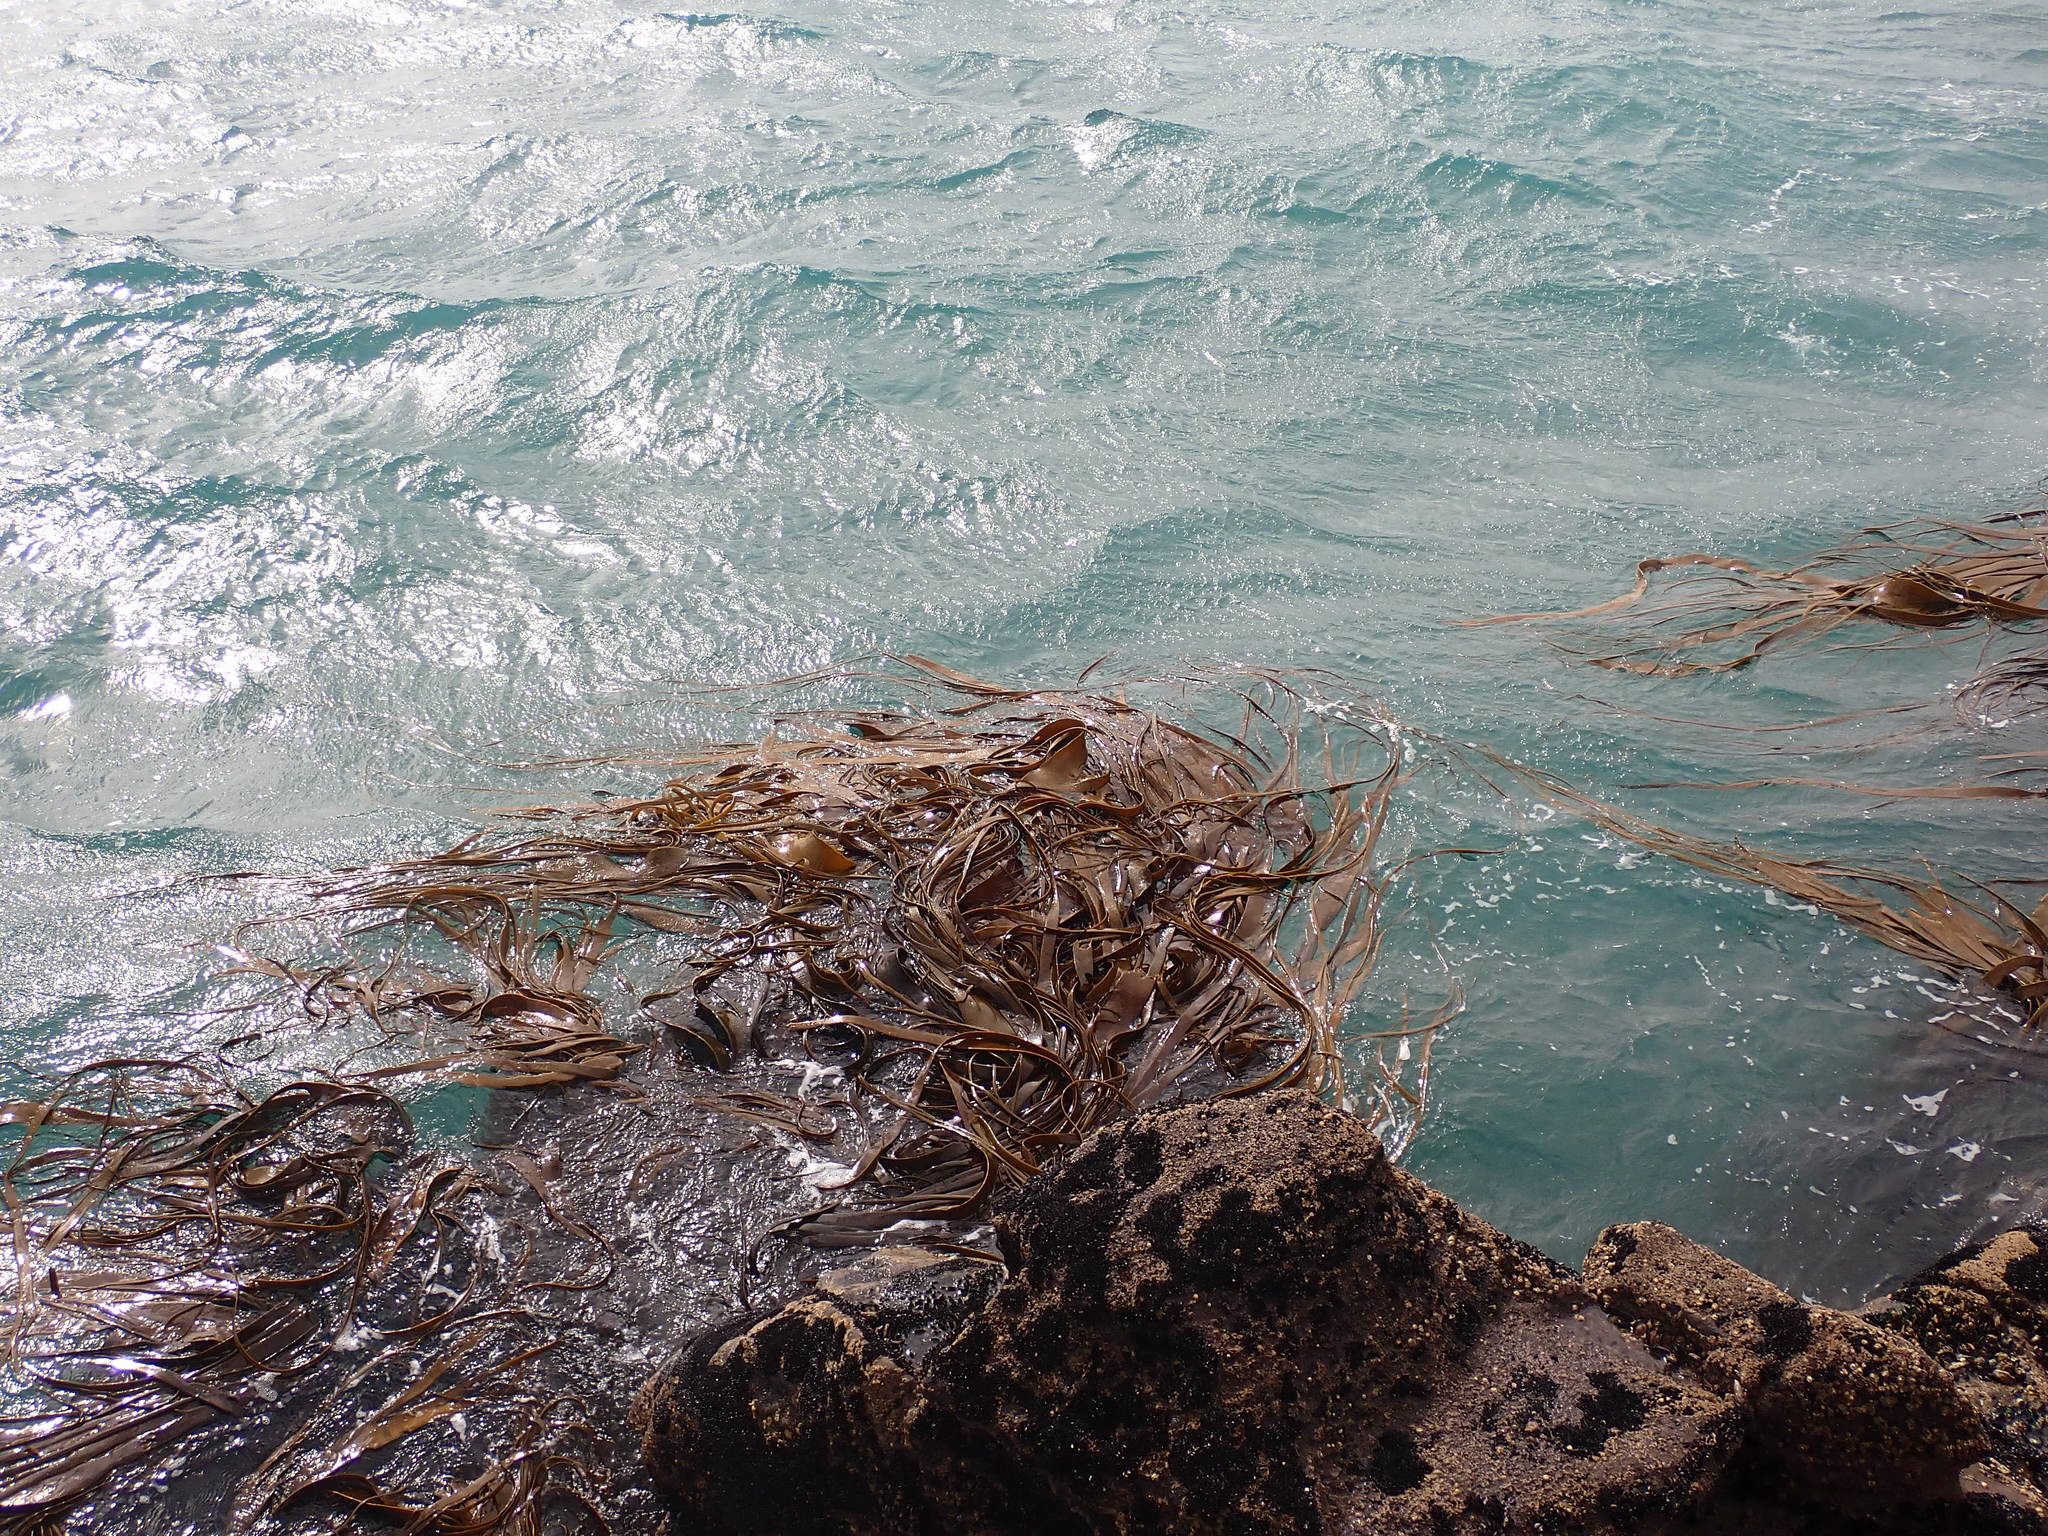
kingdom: Chromista
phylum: Ochrophyta
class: Phaeophyceae
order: Fucales
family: Durvillaeaceae
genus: Durvillaea
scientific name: Durvillaea antarctica
